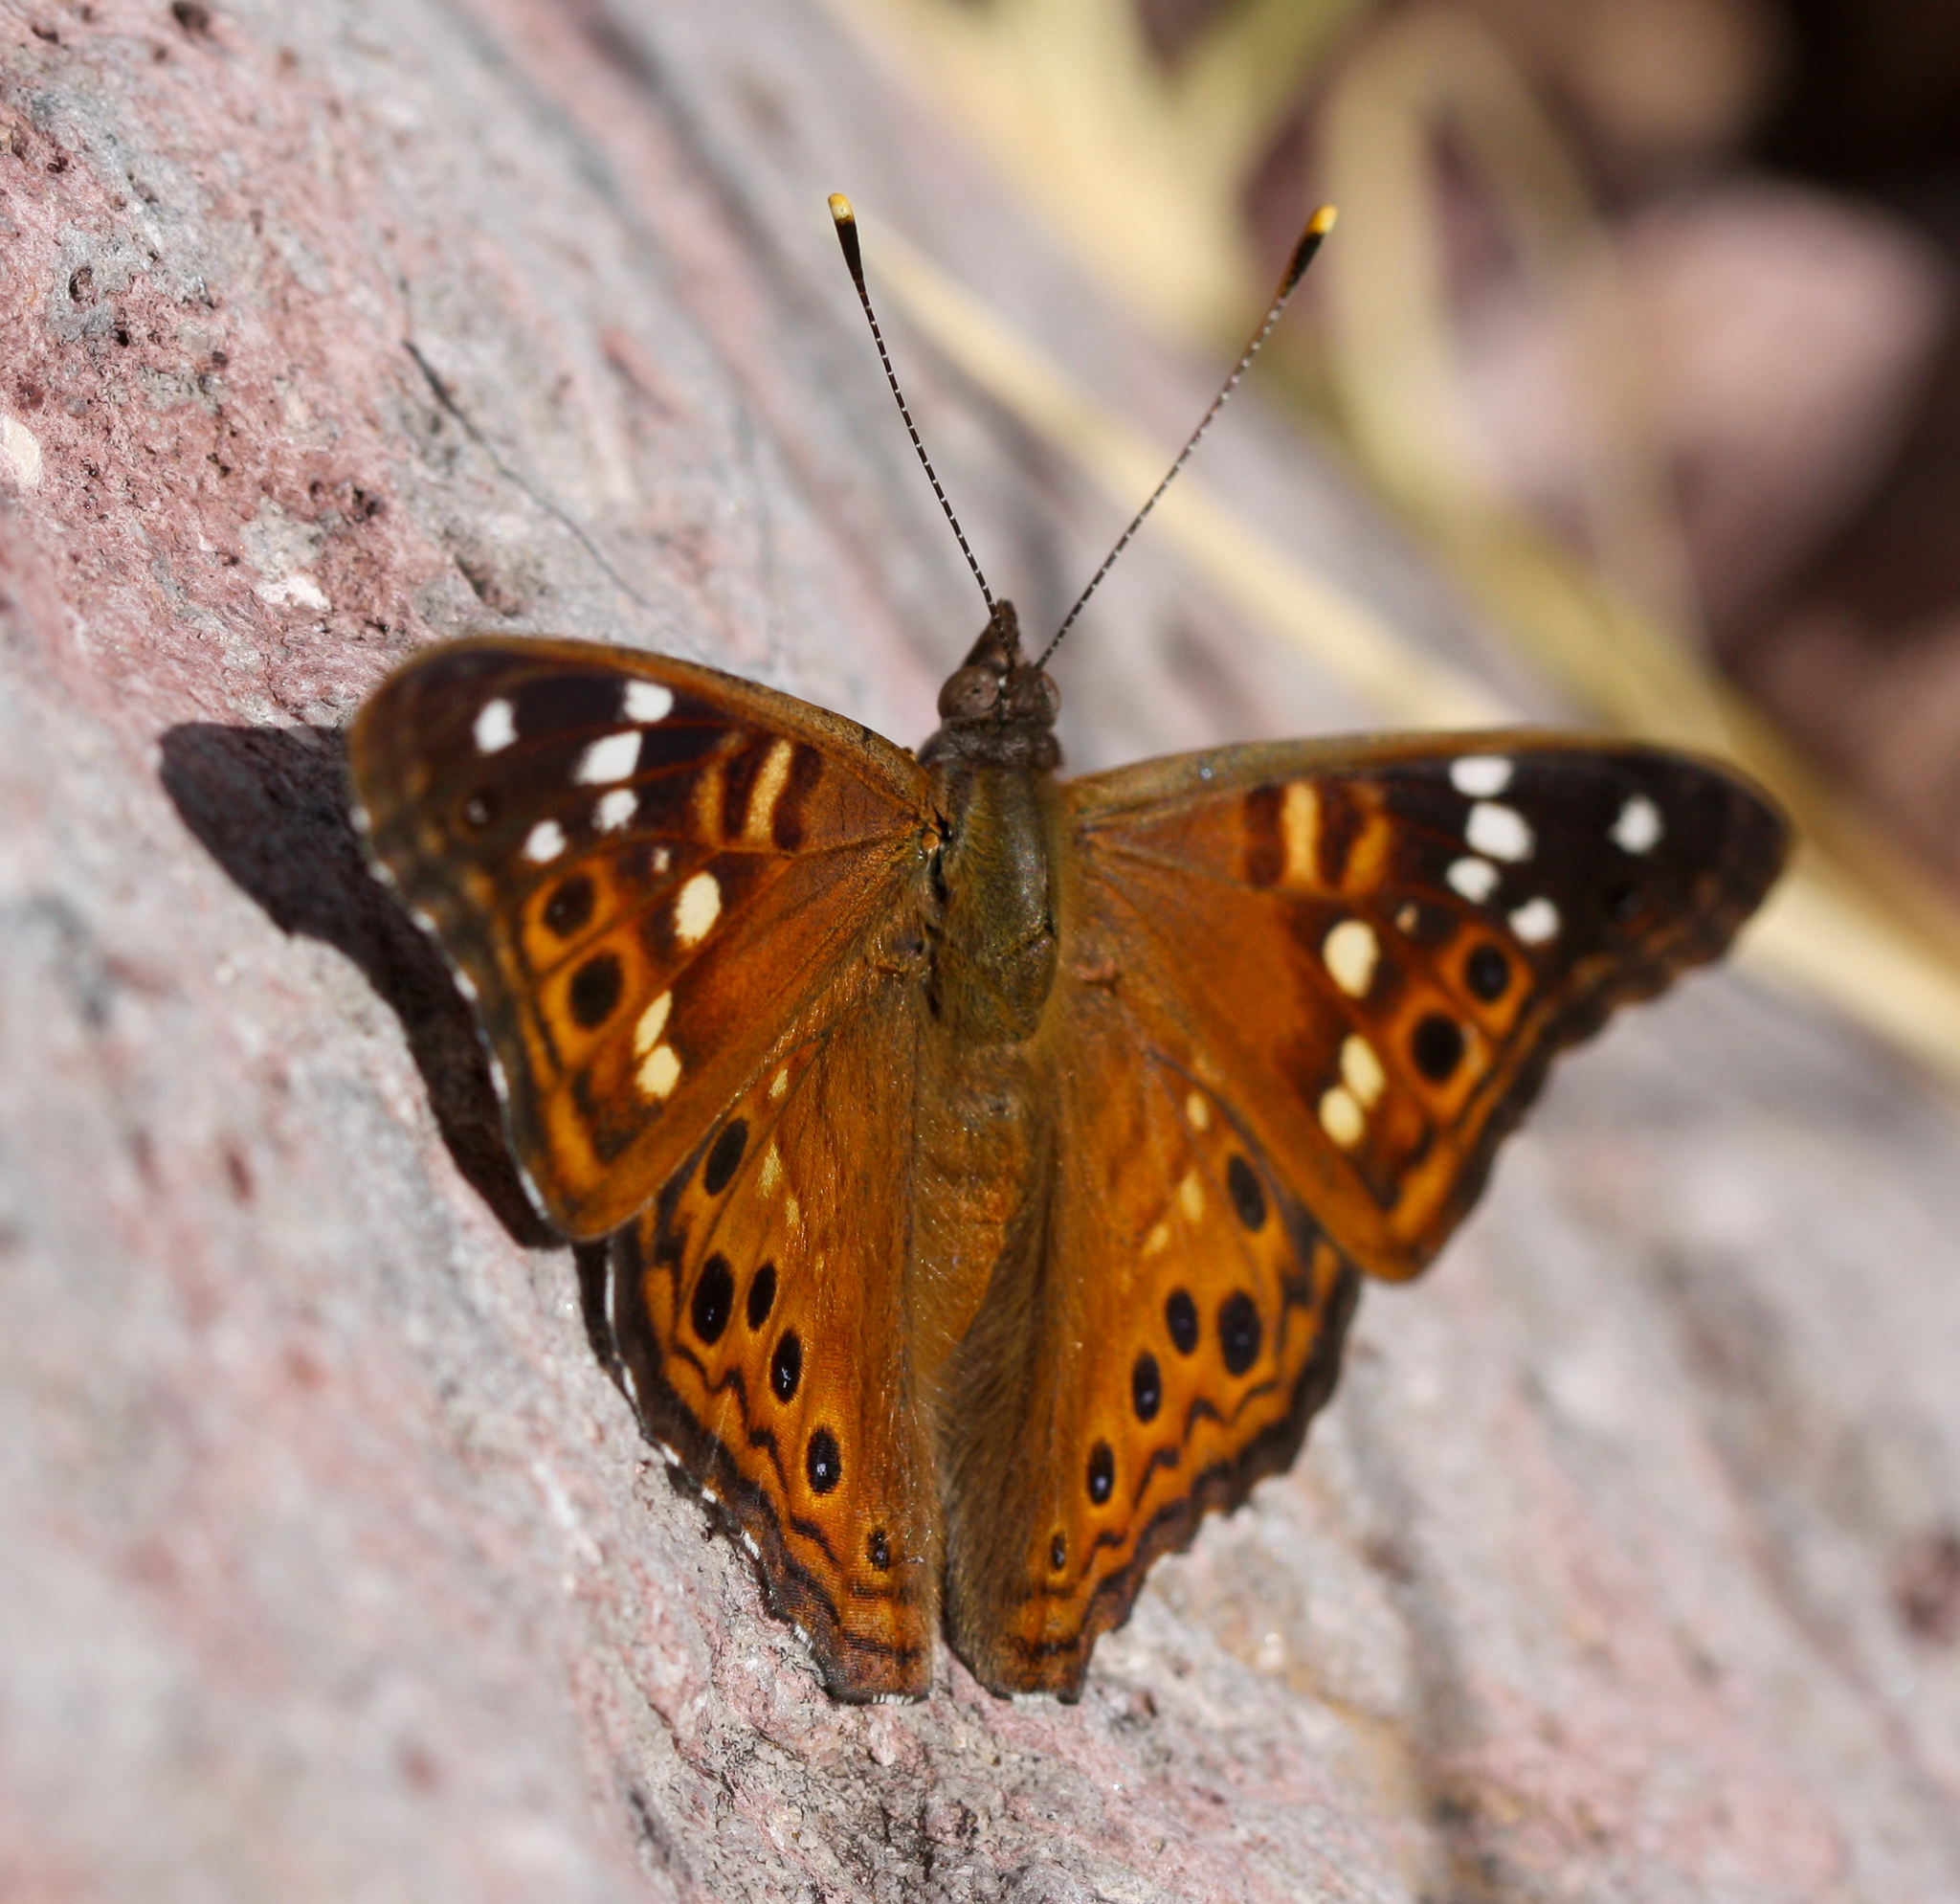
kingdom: Animalia
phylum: Arthropoda
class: Insecta
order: Lepidoptera
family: Nymphalidae
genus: Asterocampa
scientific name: Asterocampa leilia
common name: Empress leilia
